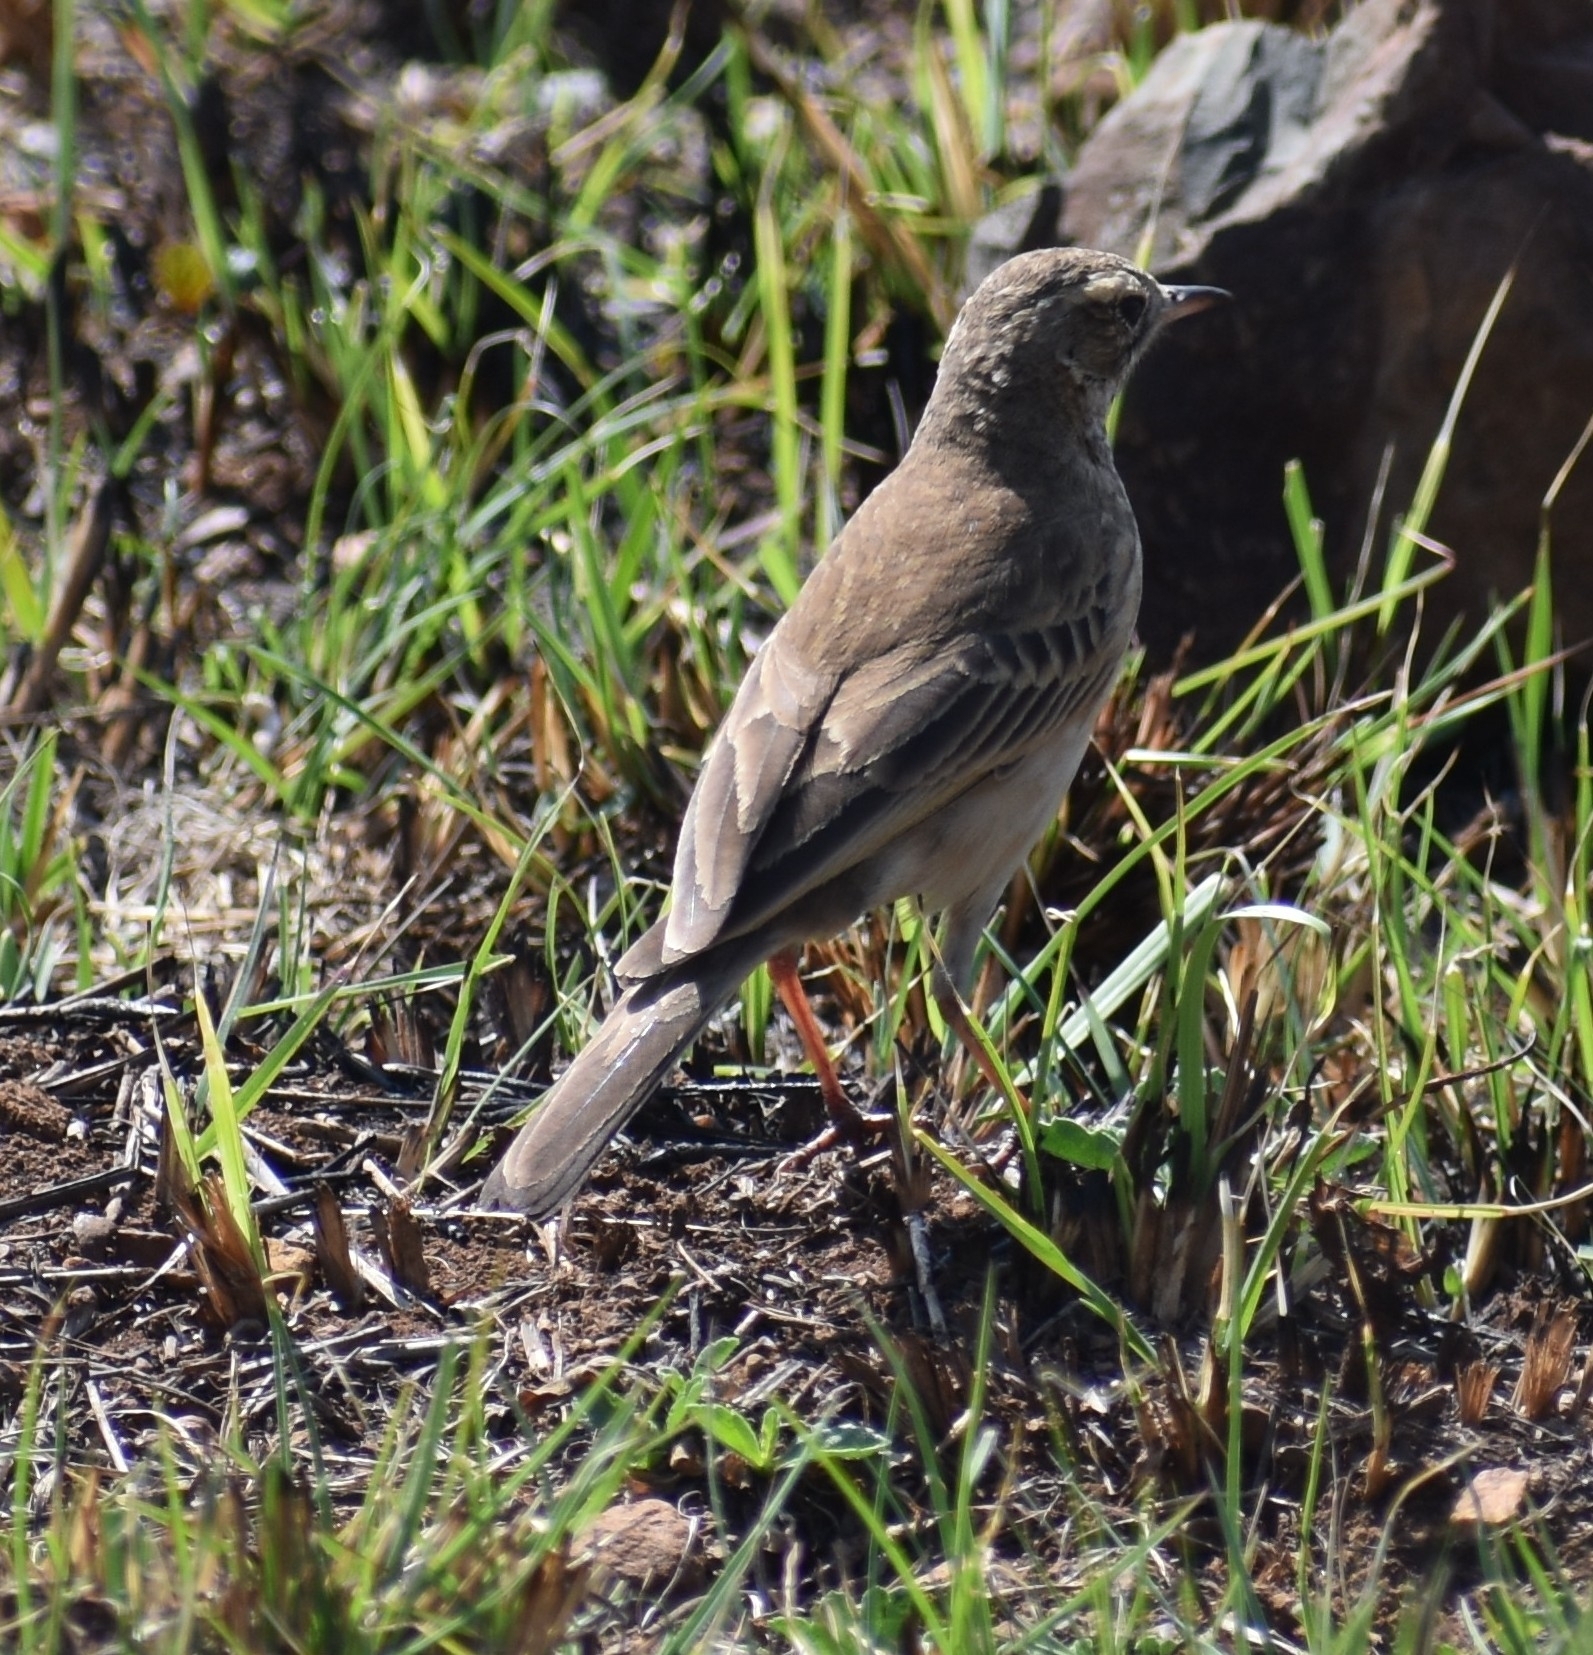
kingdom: Animalia
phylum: Chordata
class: Aves
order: Passeriformes
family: Motacillidae
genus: Anthus
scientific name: Anthus leucophrys
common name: Plain-backed pipit
